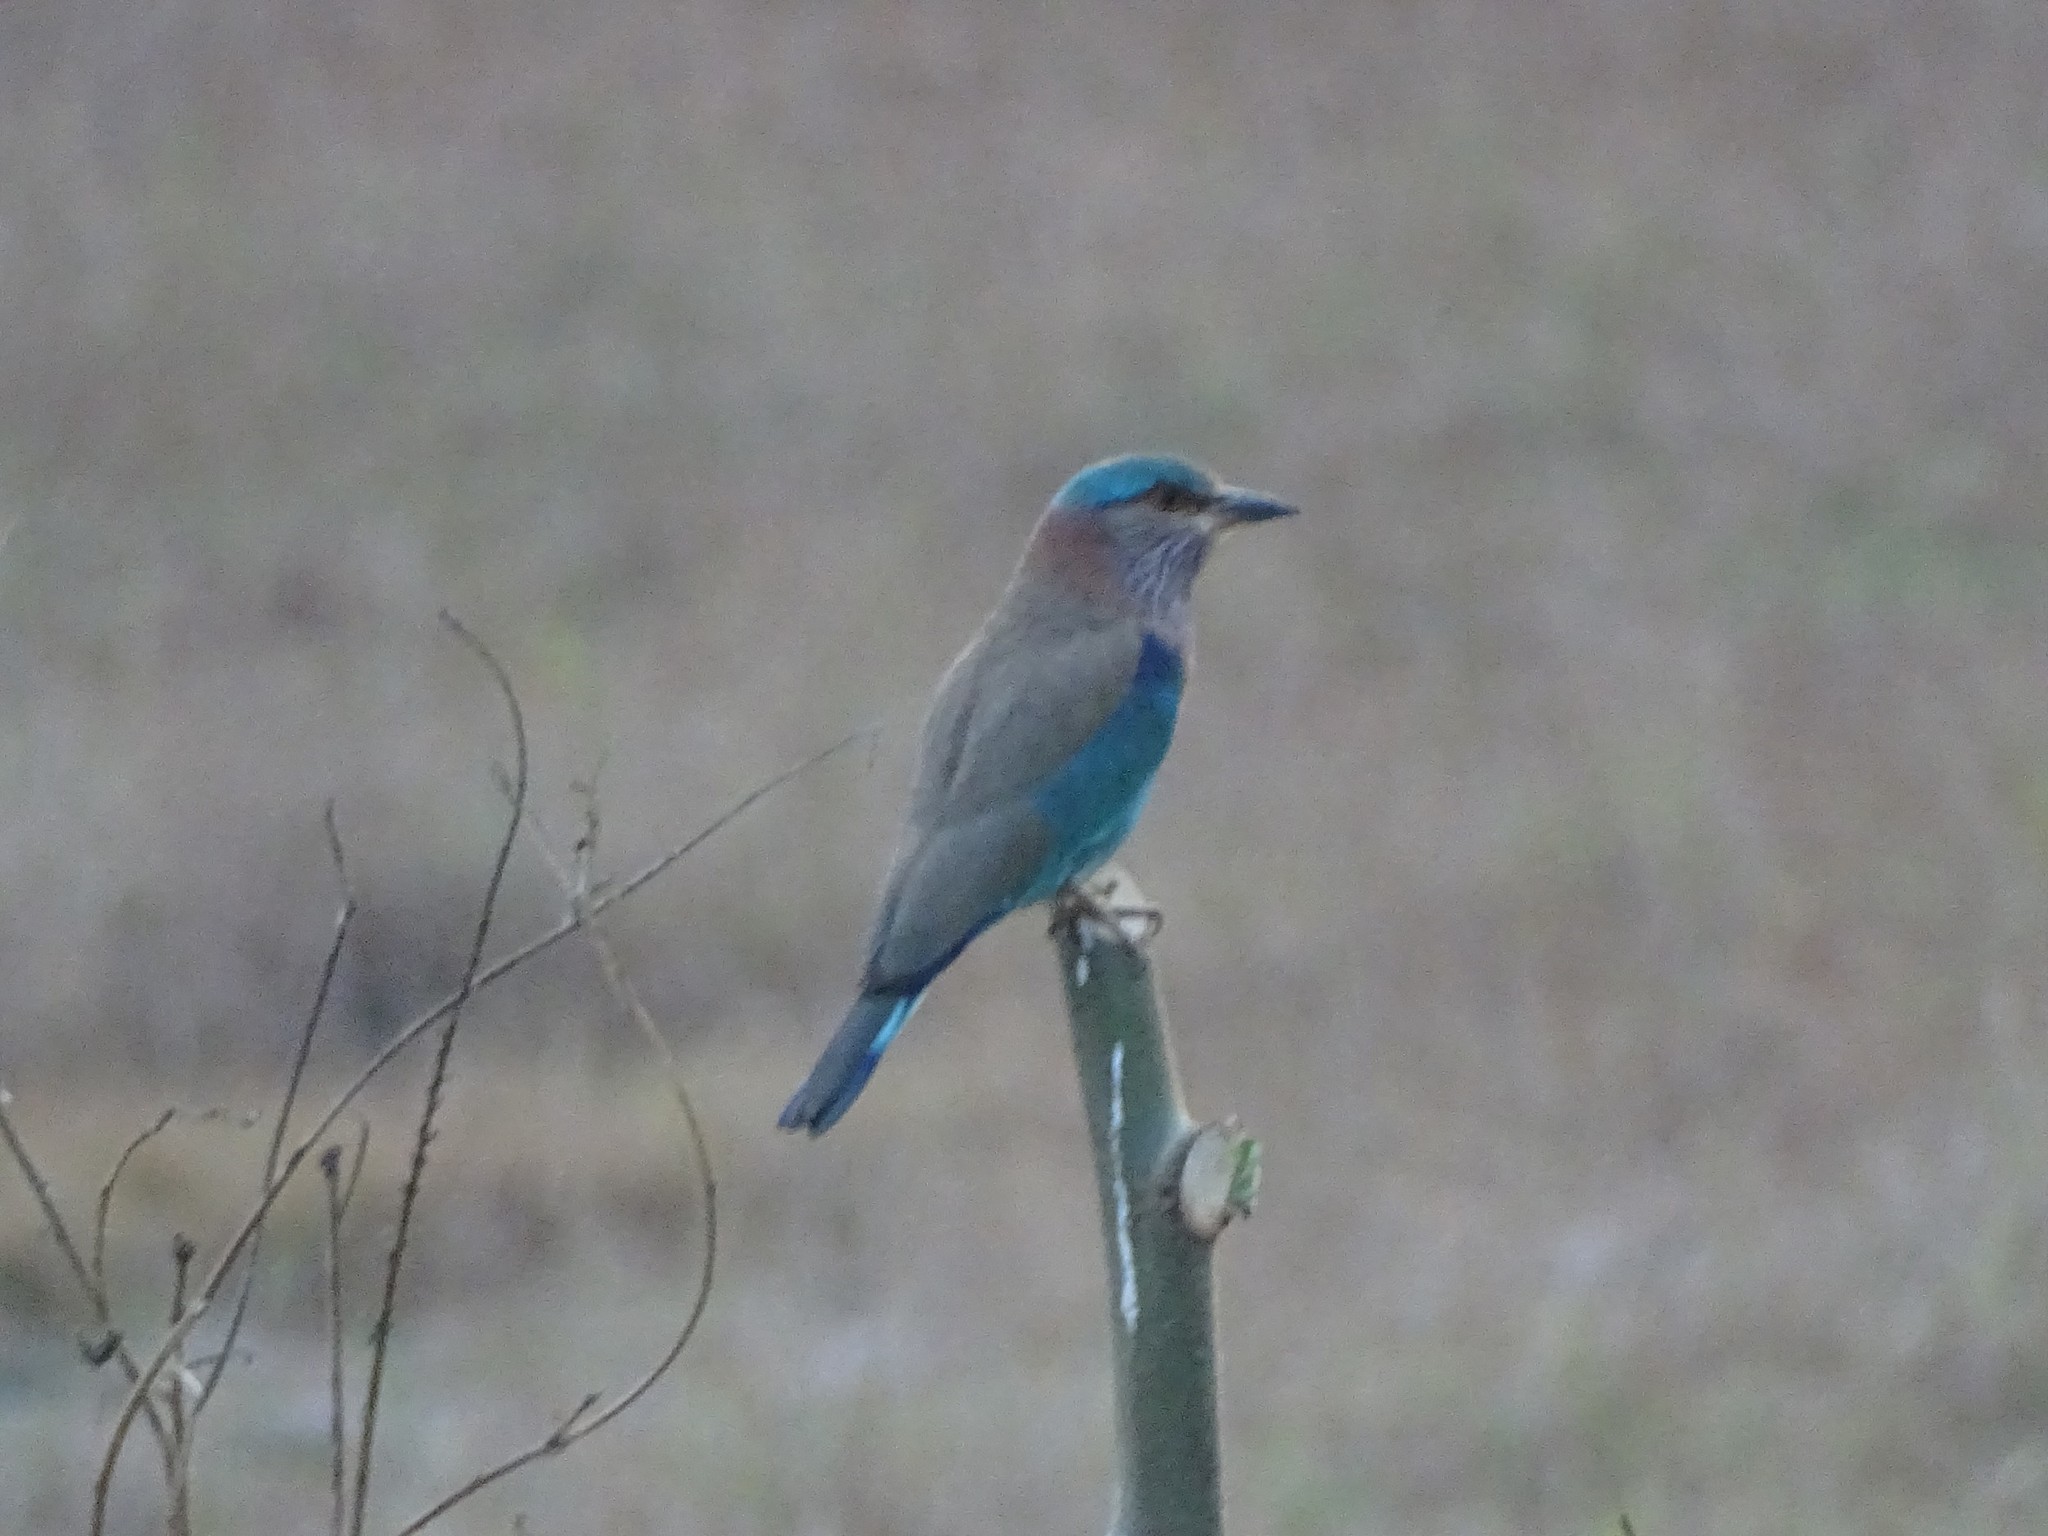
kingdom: Animalia
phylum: Chordata
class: Aves
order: Coraciiformes
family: Coraciidae
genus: Coracias
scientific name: Coracias benghalensis
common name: Indian roller
